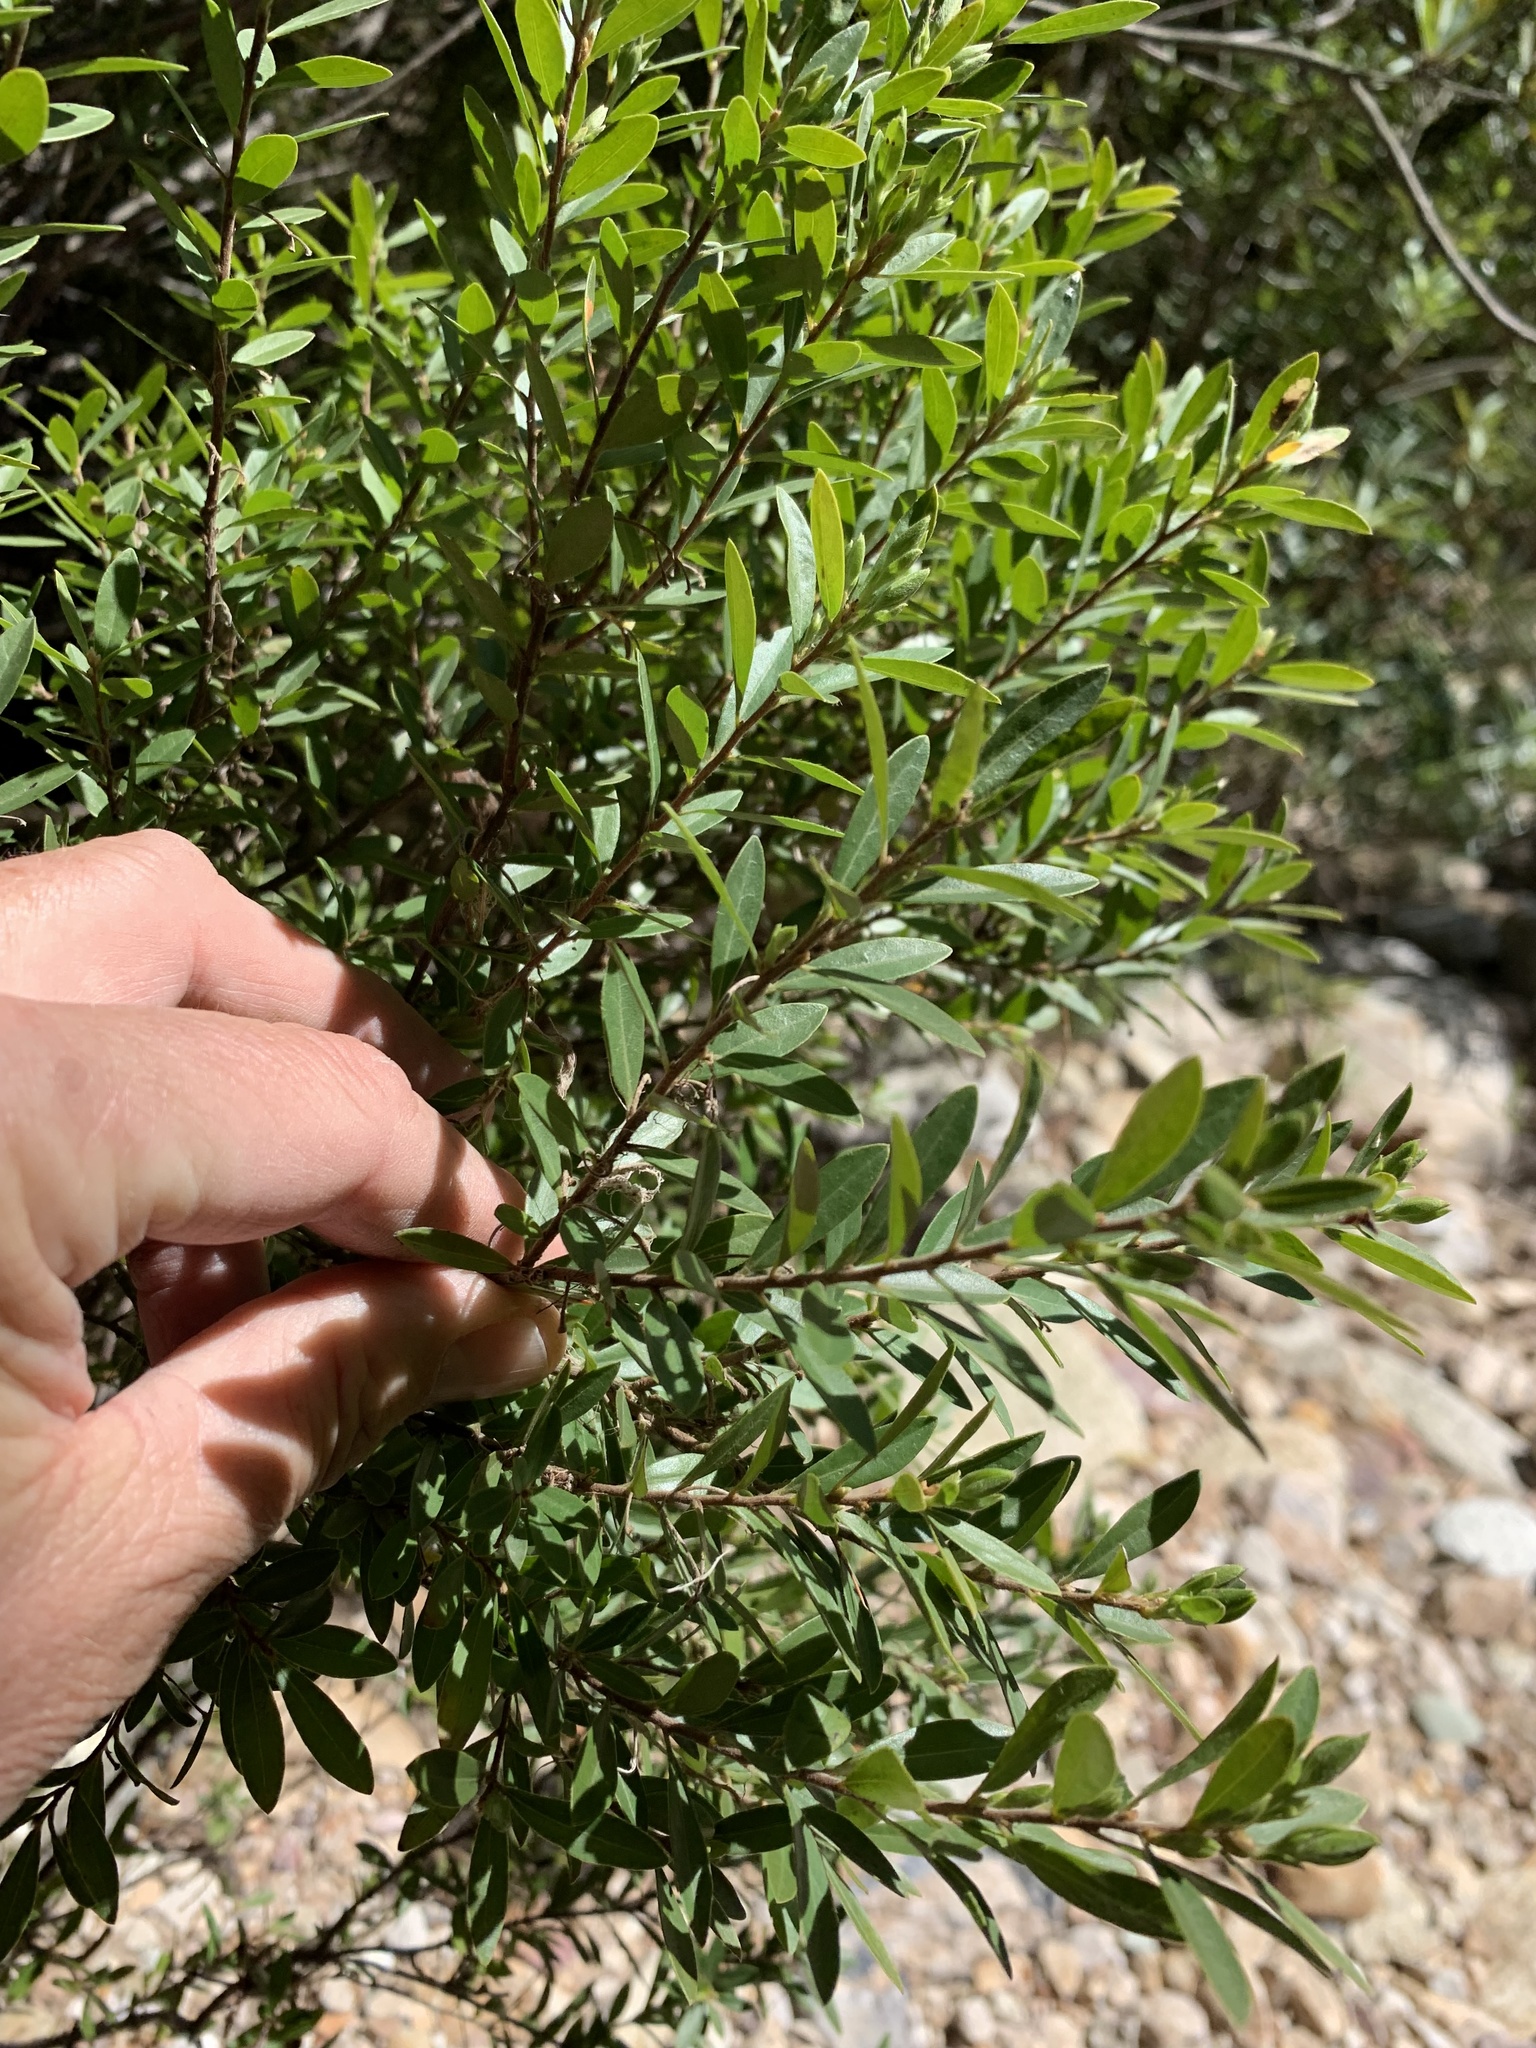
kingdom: Plantae
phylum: Tracheophyta
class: Magnoliopsida
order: Ericales
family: Ebenaceae
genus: Diospyros
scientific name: Diospyros glabra
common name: Fynbos star apple
